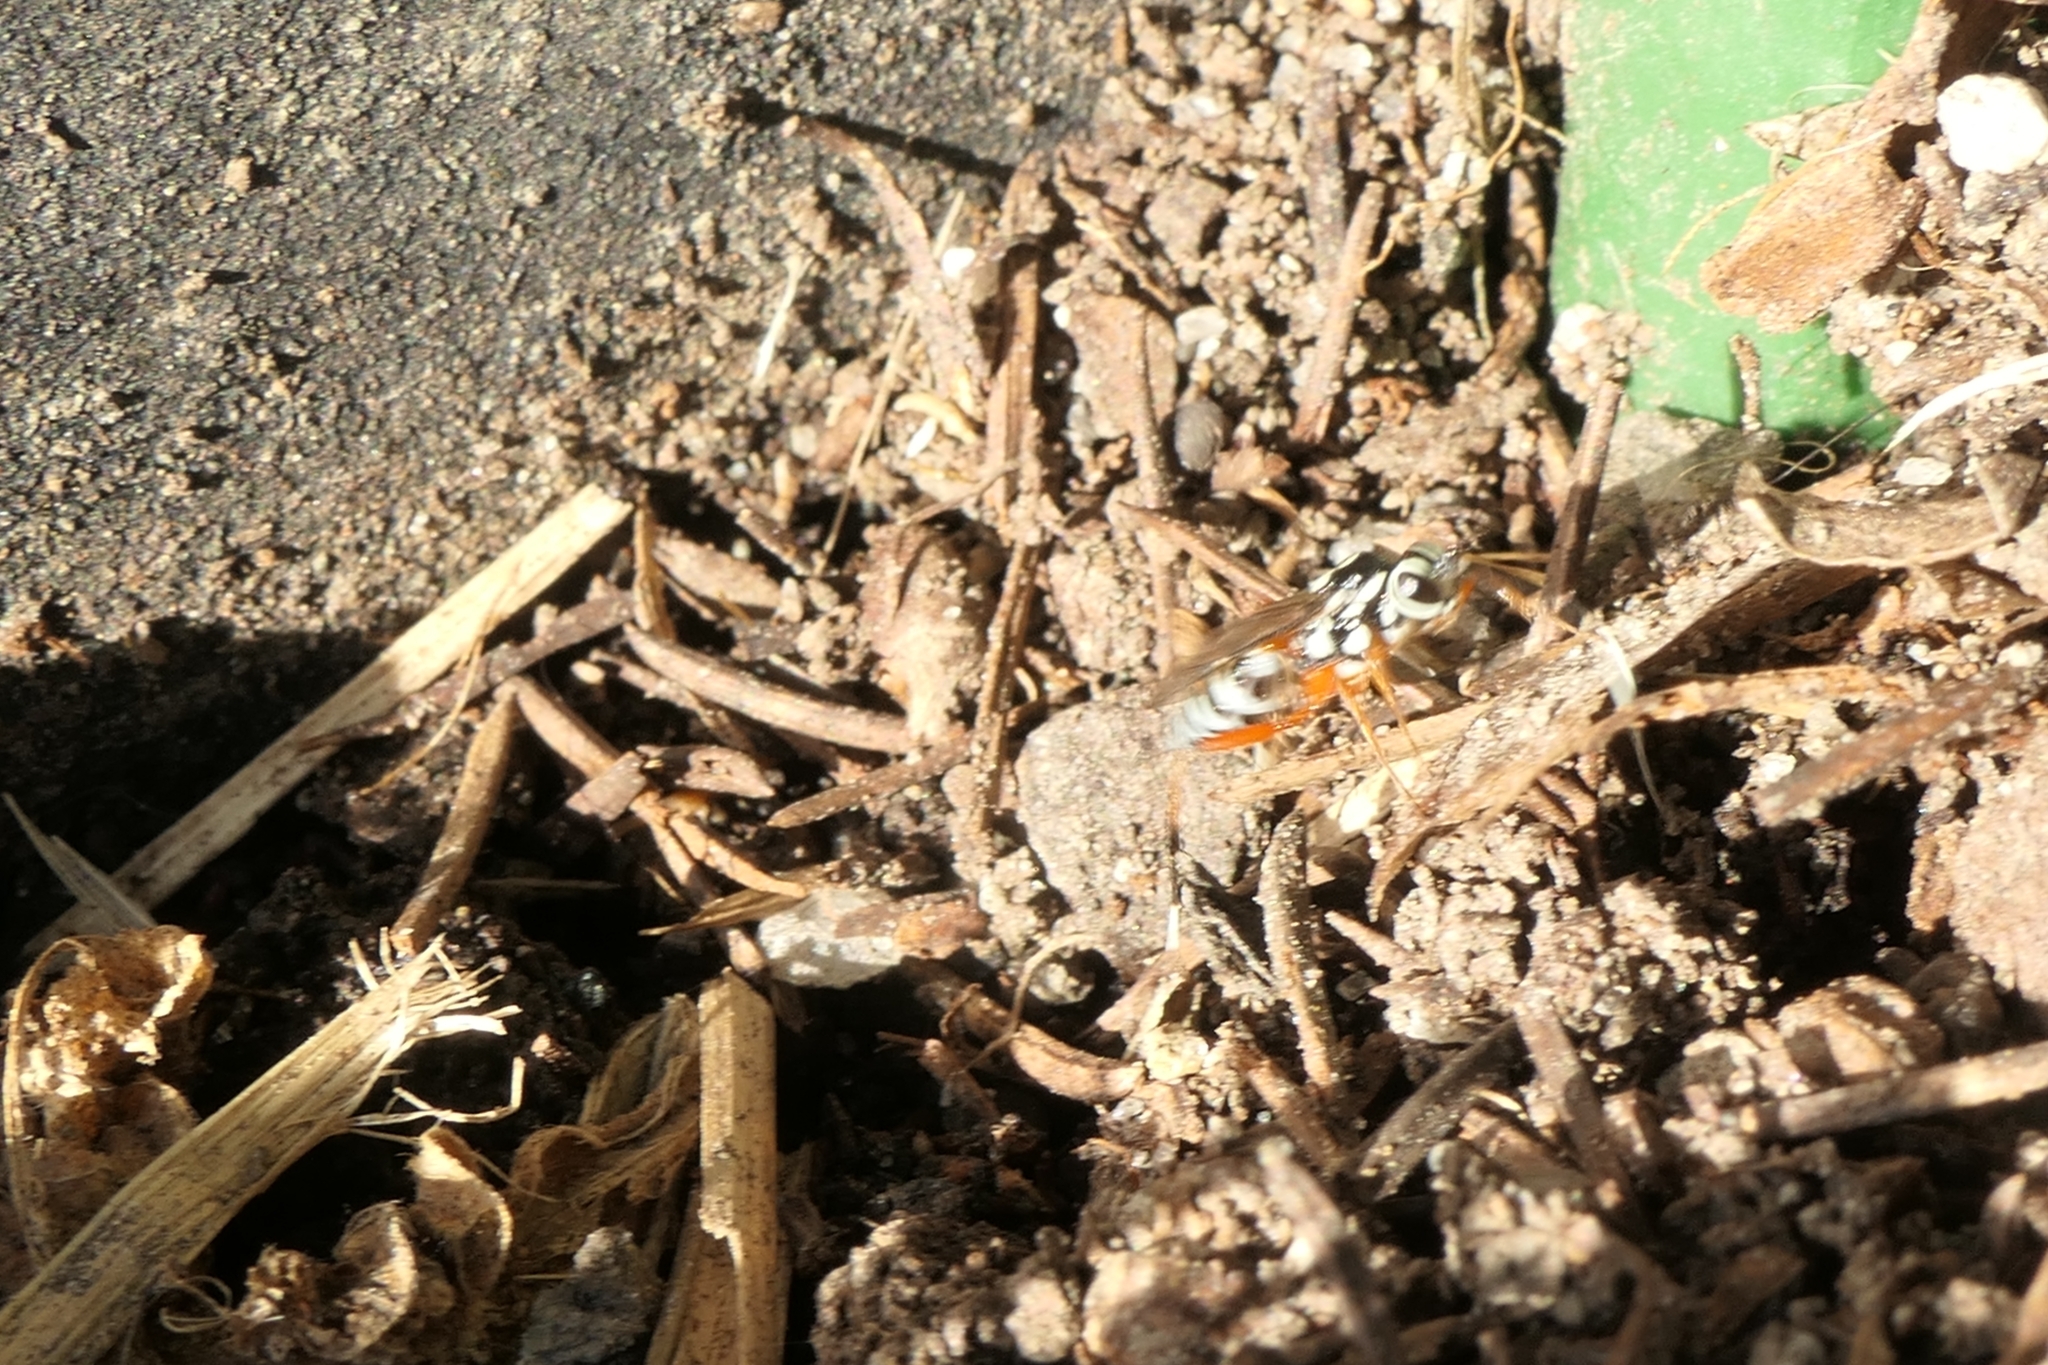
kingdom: Animalia
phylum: Arthropoda
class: Insecta
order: Hymenoptera
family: Ichneumonidae
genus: Glabridorsum
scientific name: Glabridorsum stokesii
